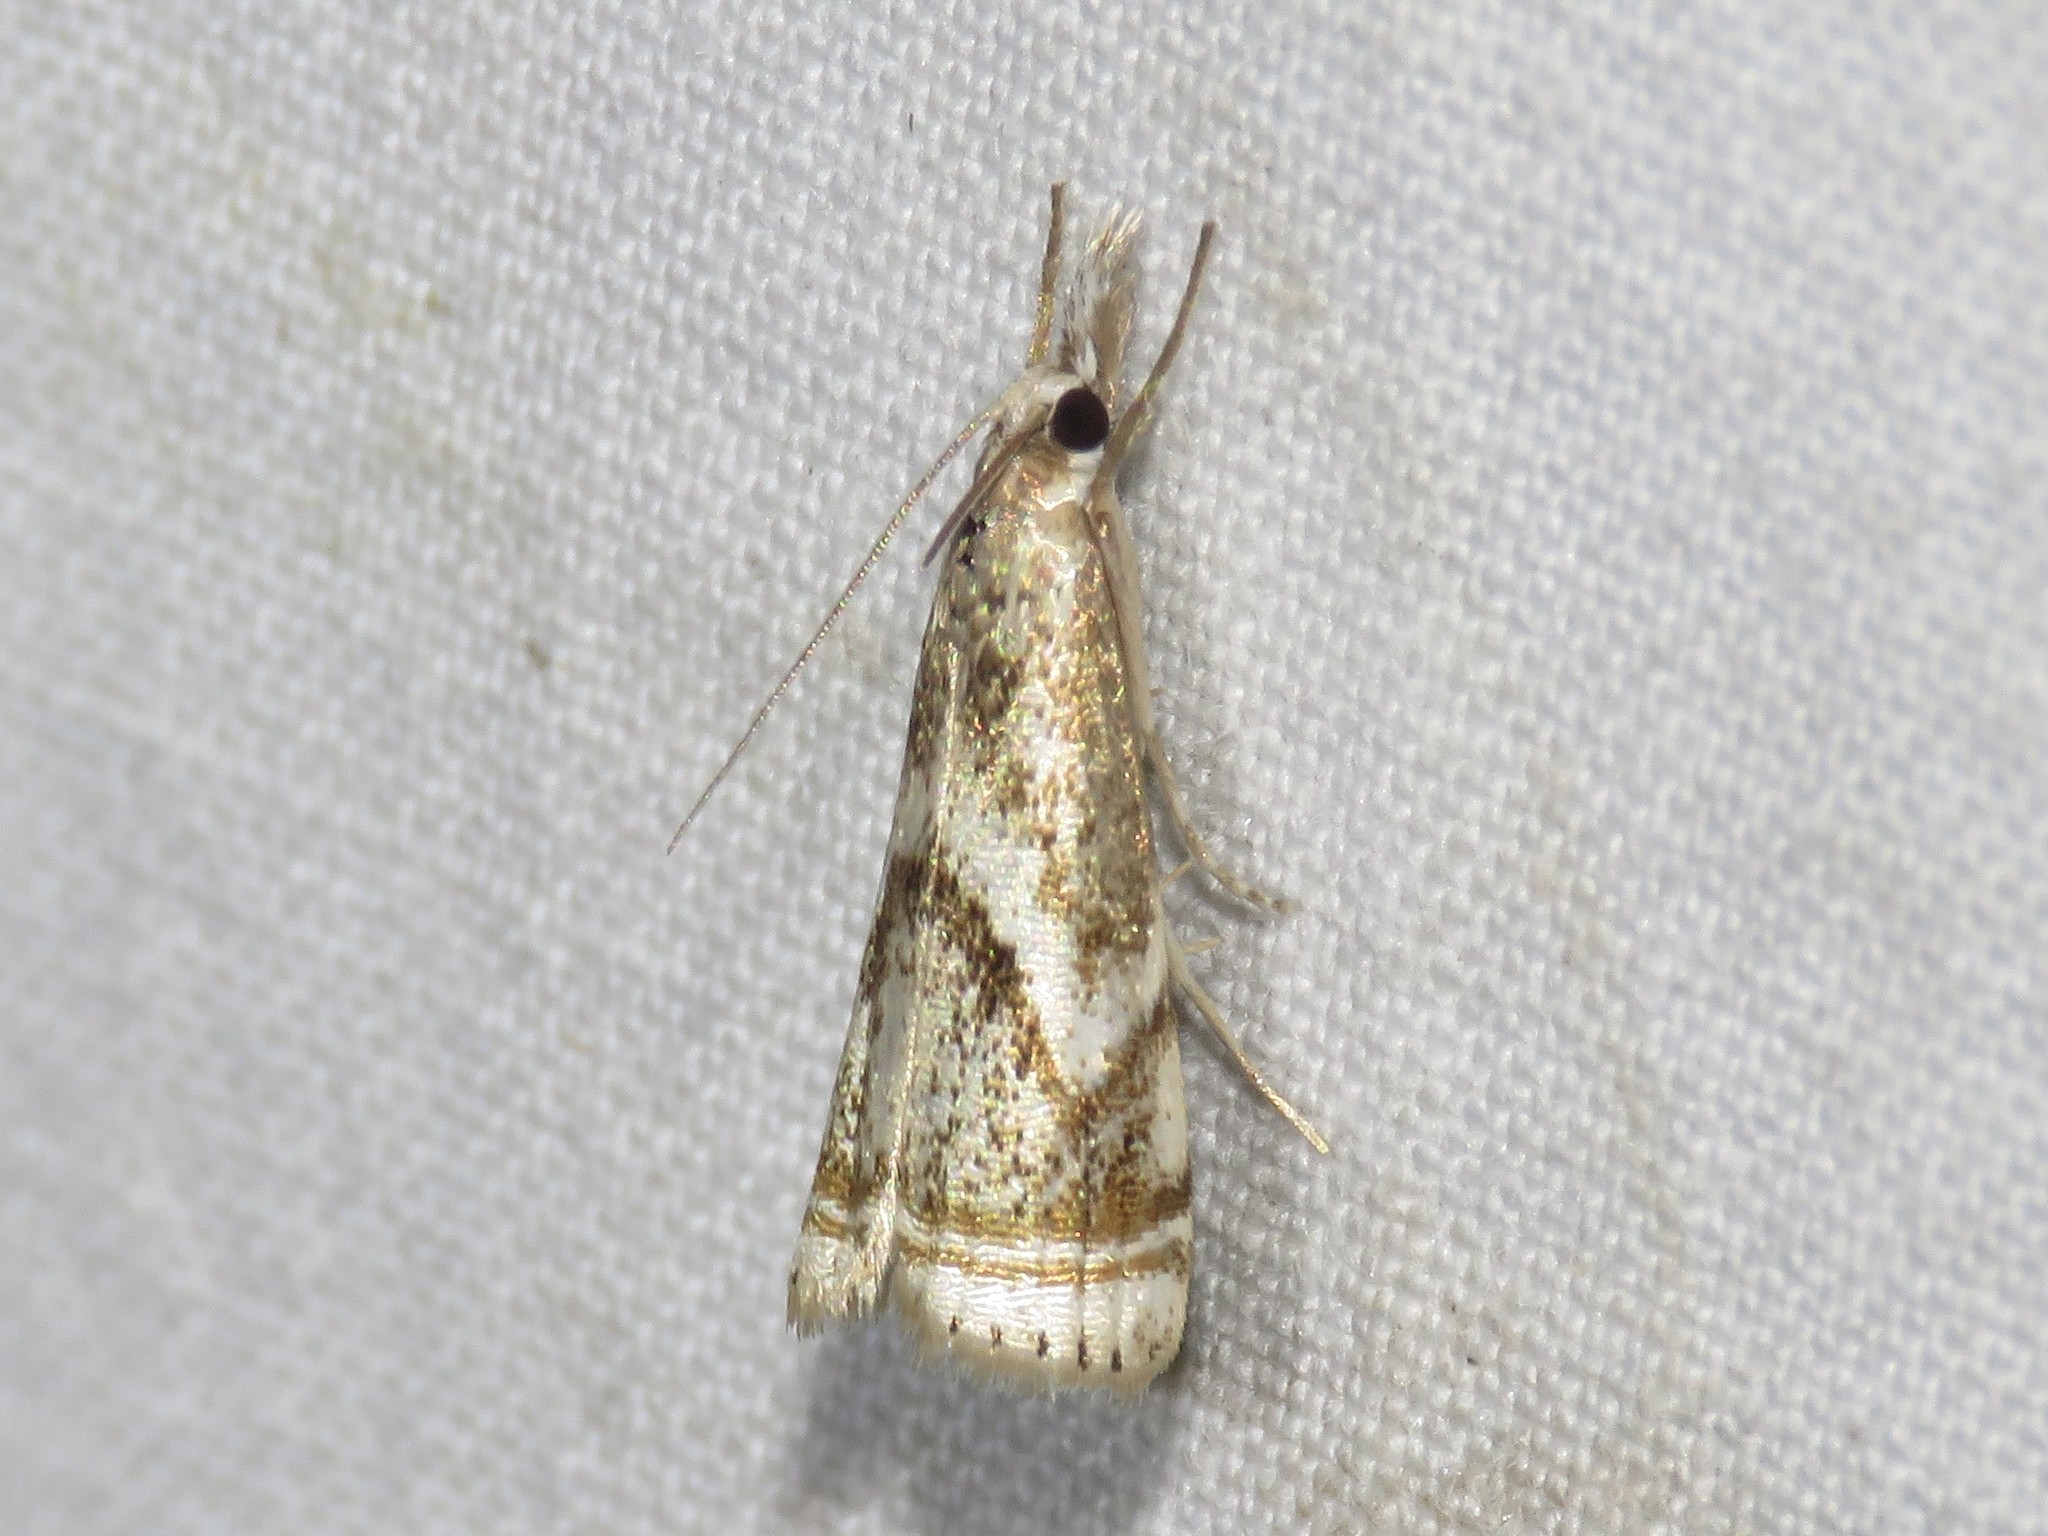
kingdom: Animalia
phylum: Arthropoda
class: Insecta
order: Lepidoptera
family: Crambidae
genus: Microcrambus
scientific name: Microcrambus elegans
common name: Elegant grass-veneer
